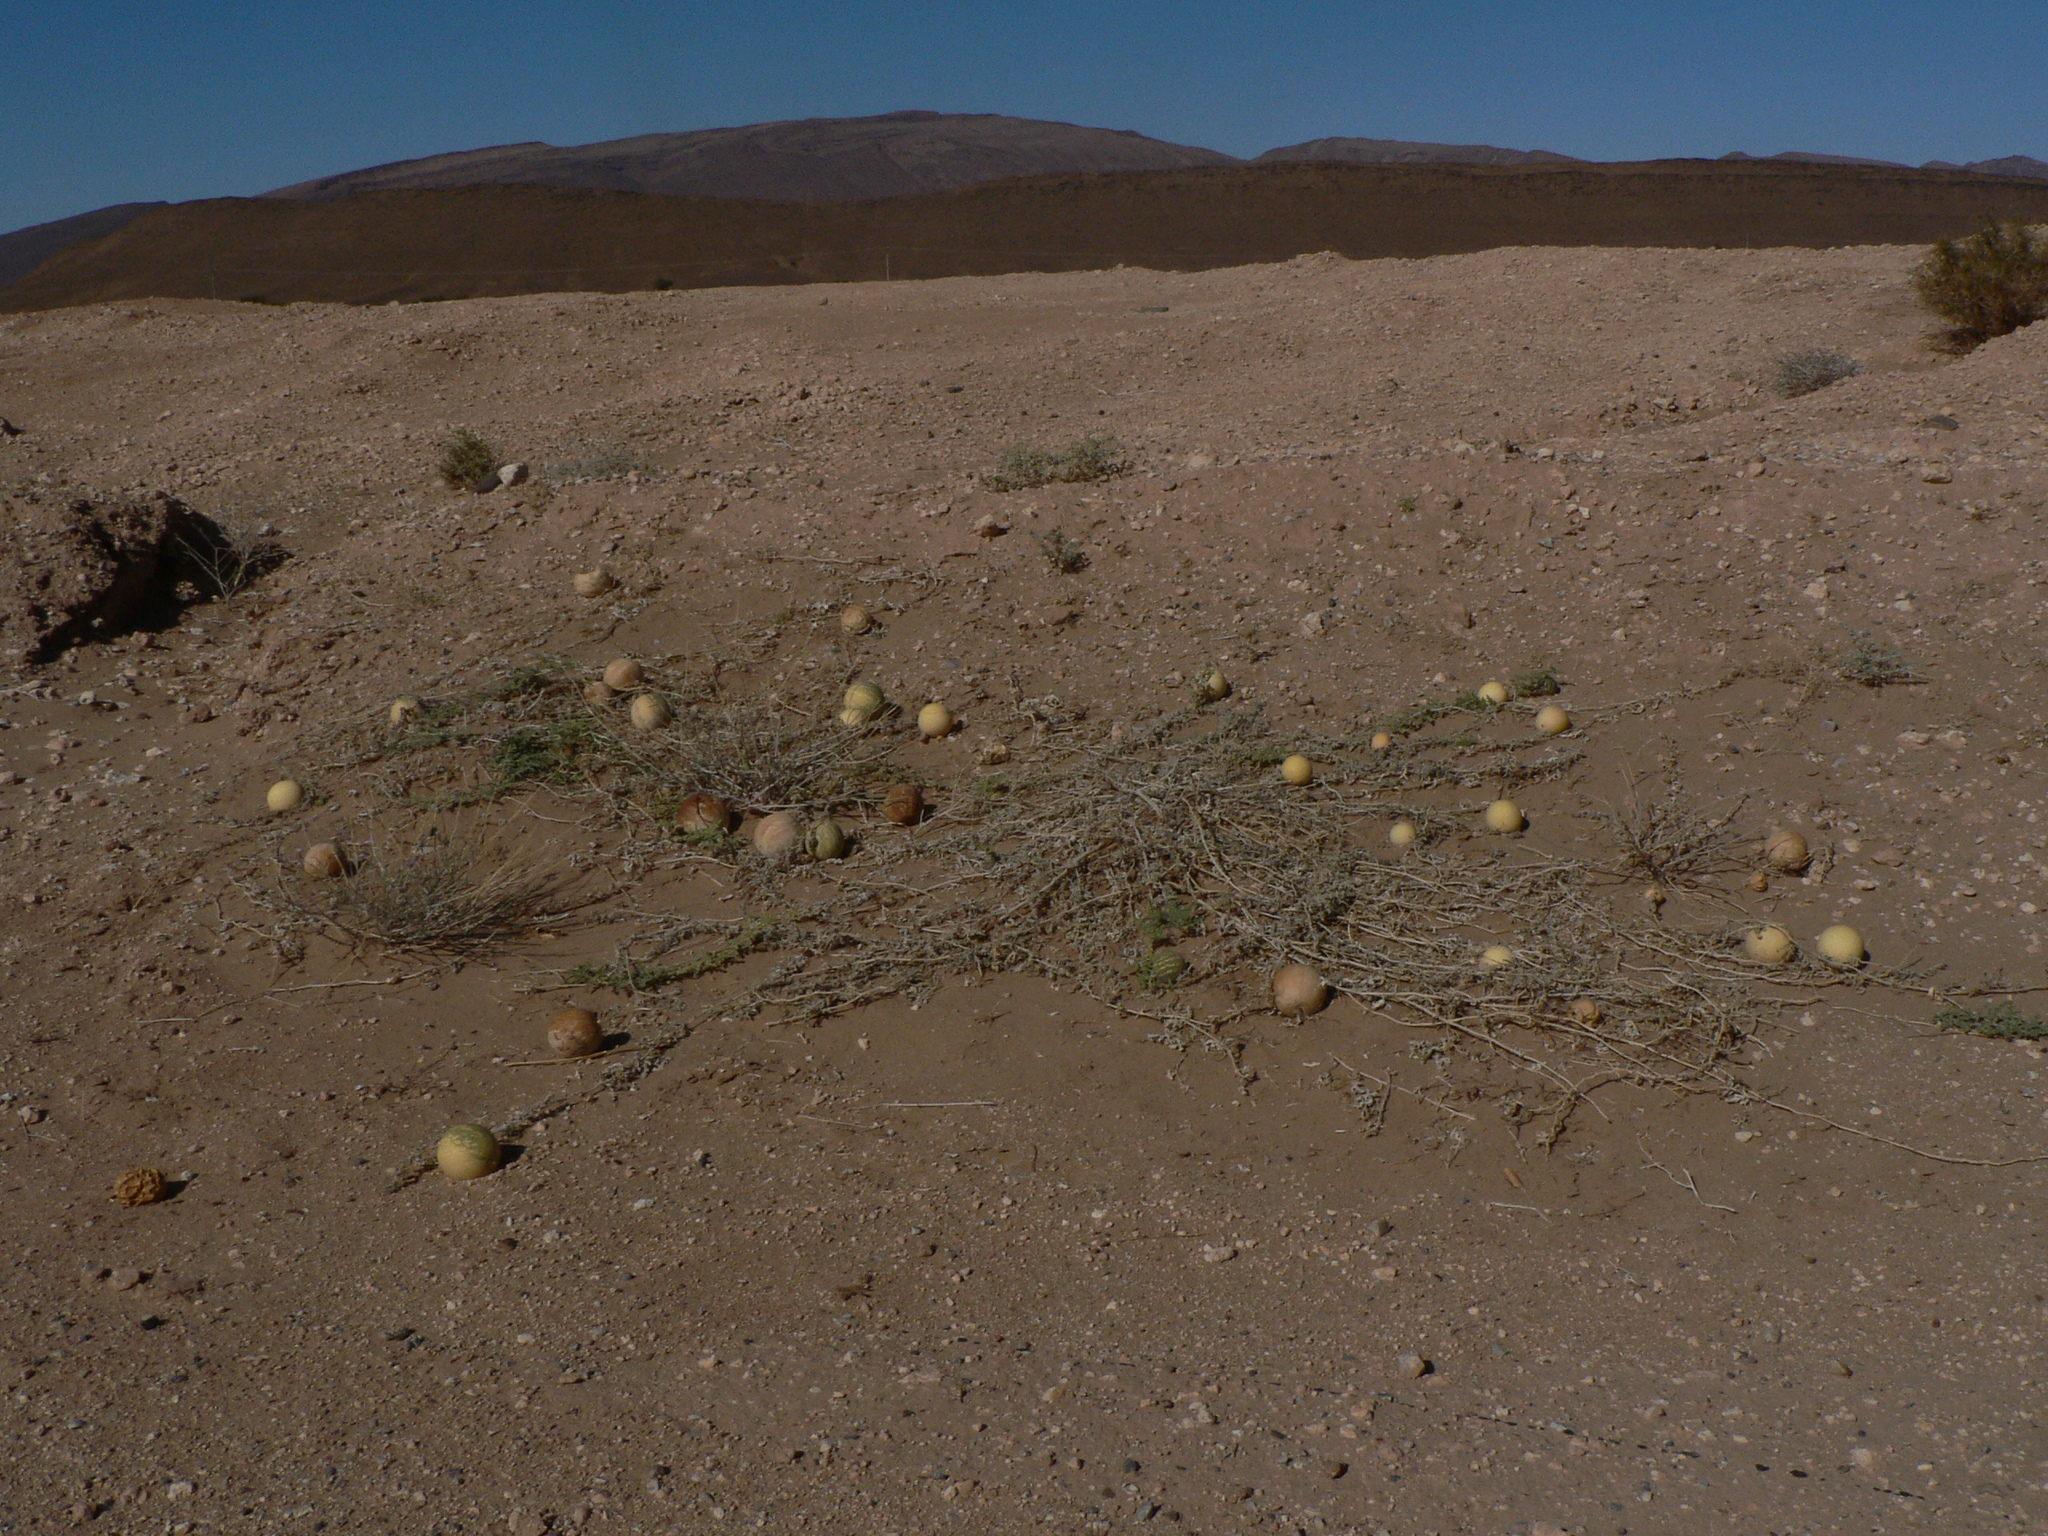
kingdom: Plantae
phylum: Tracheophyta
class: Magnoliopsida
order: Cucurbitales
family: Cucurbitaceae
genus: Citrullus
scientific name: Citrullus colocynthis
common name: Colocynth
